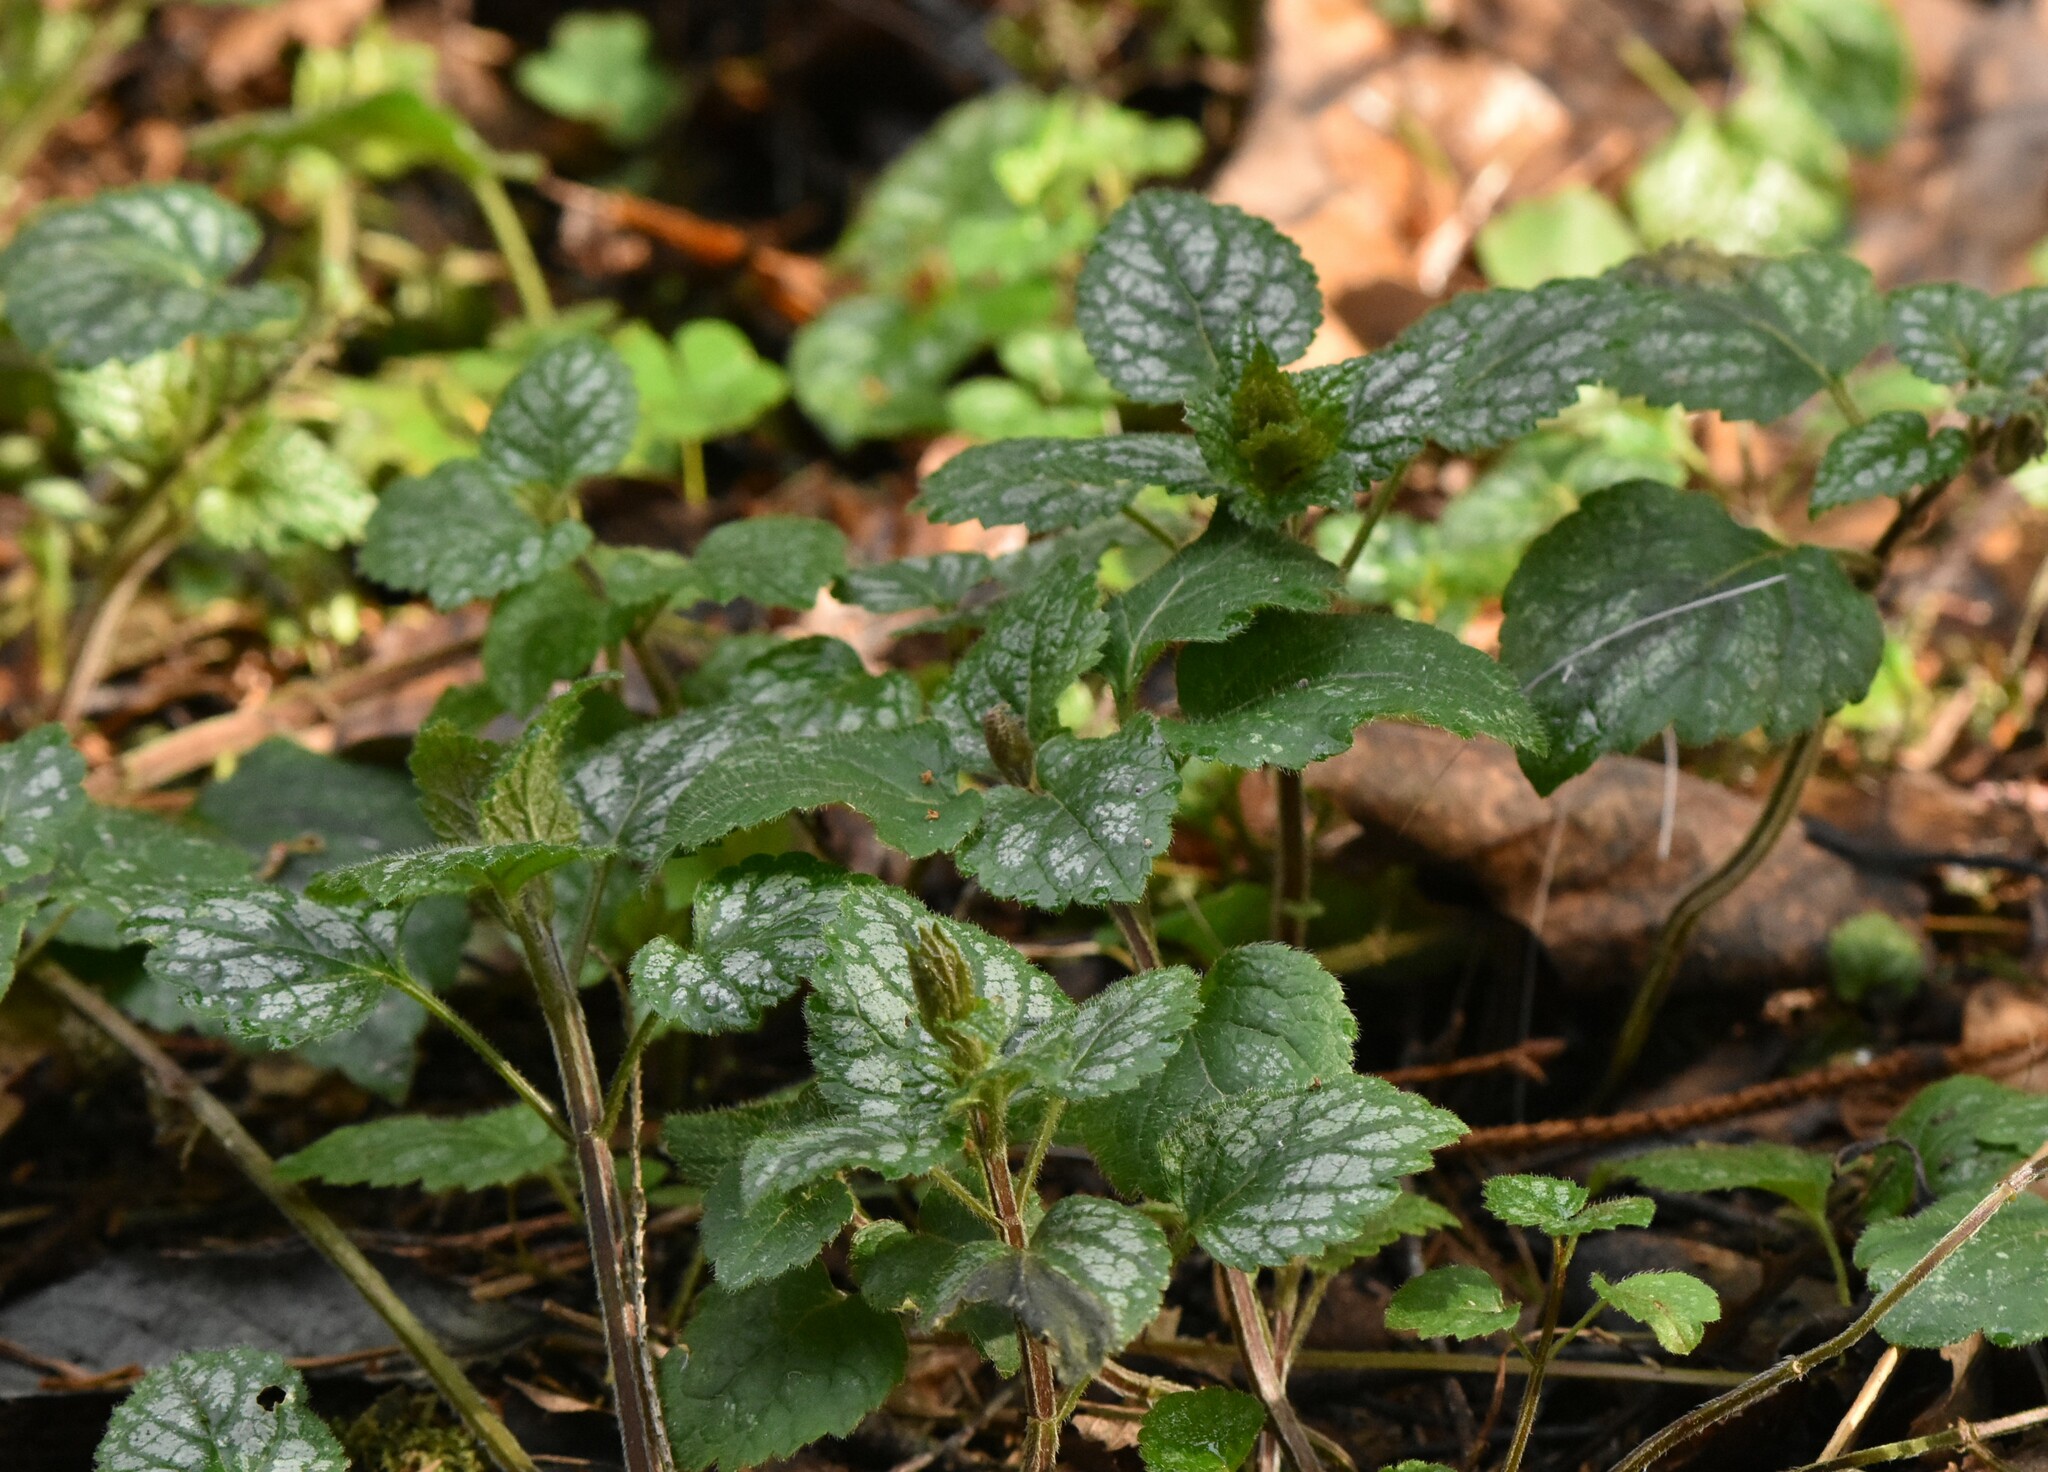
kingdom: Plantae
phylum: Tracheophyta
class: Magnoliopsida
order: Lamiales
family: Lamiaceae
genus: Lamium
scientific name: Lamium galeobdolon
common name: Yellow archangel
